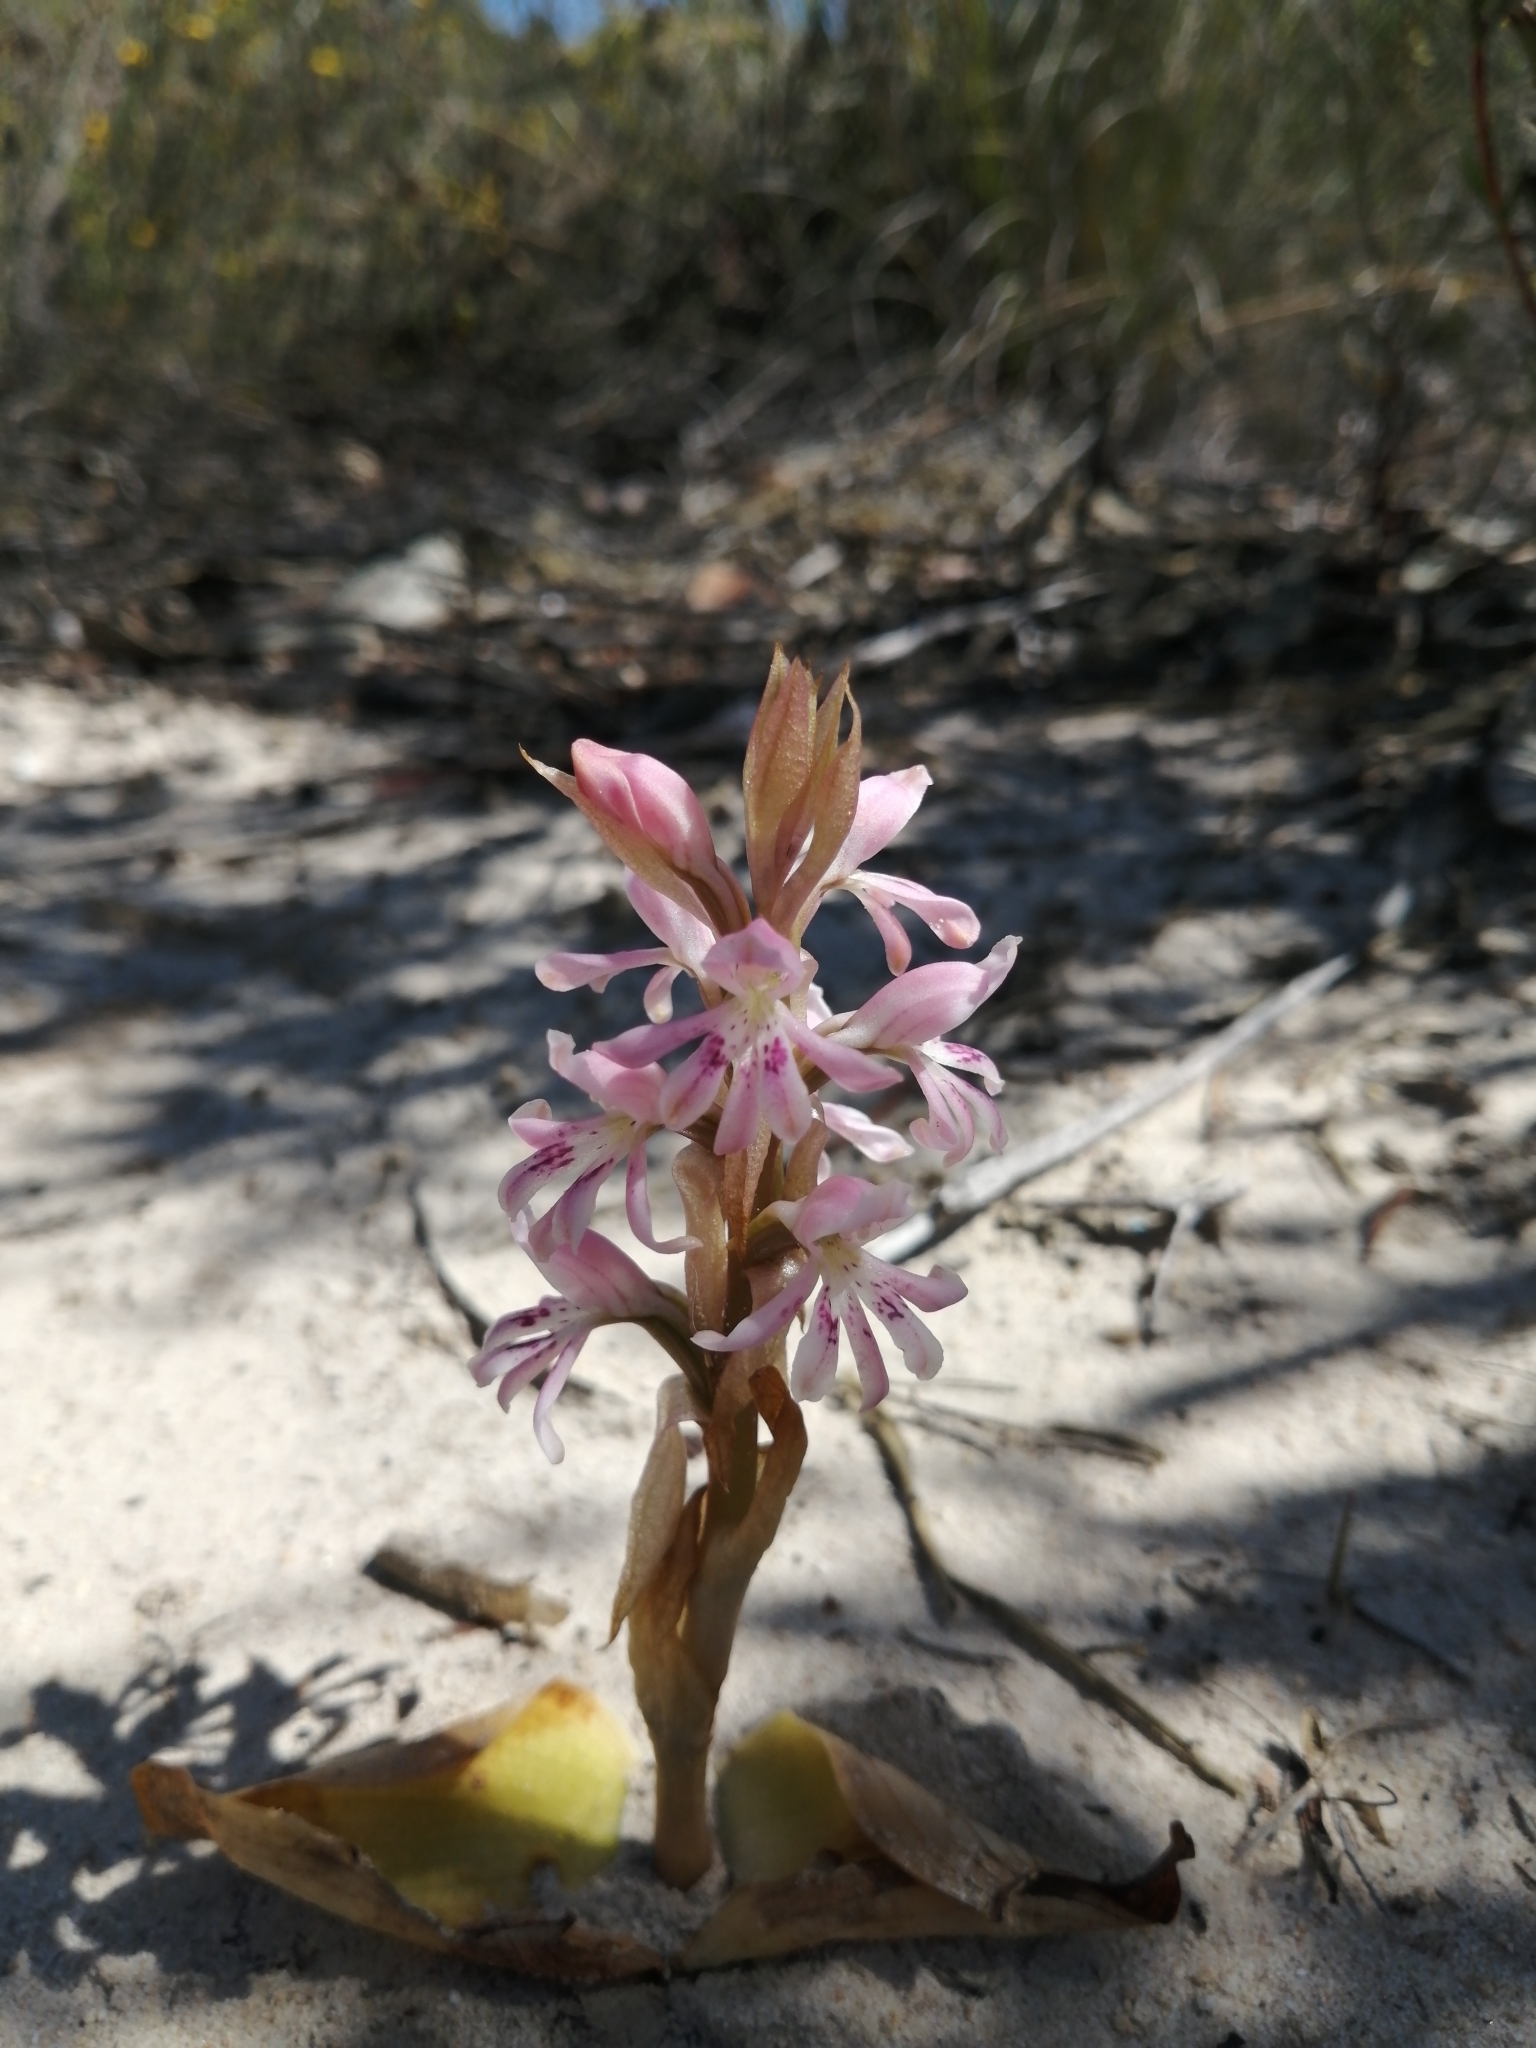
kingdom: Plantae
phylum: Tracheophyta
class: Liliopsida
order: Asparagales
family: Orchidaceae
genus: Satyrium
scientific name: Satyrium erectum
